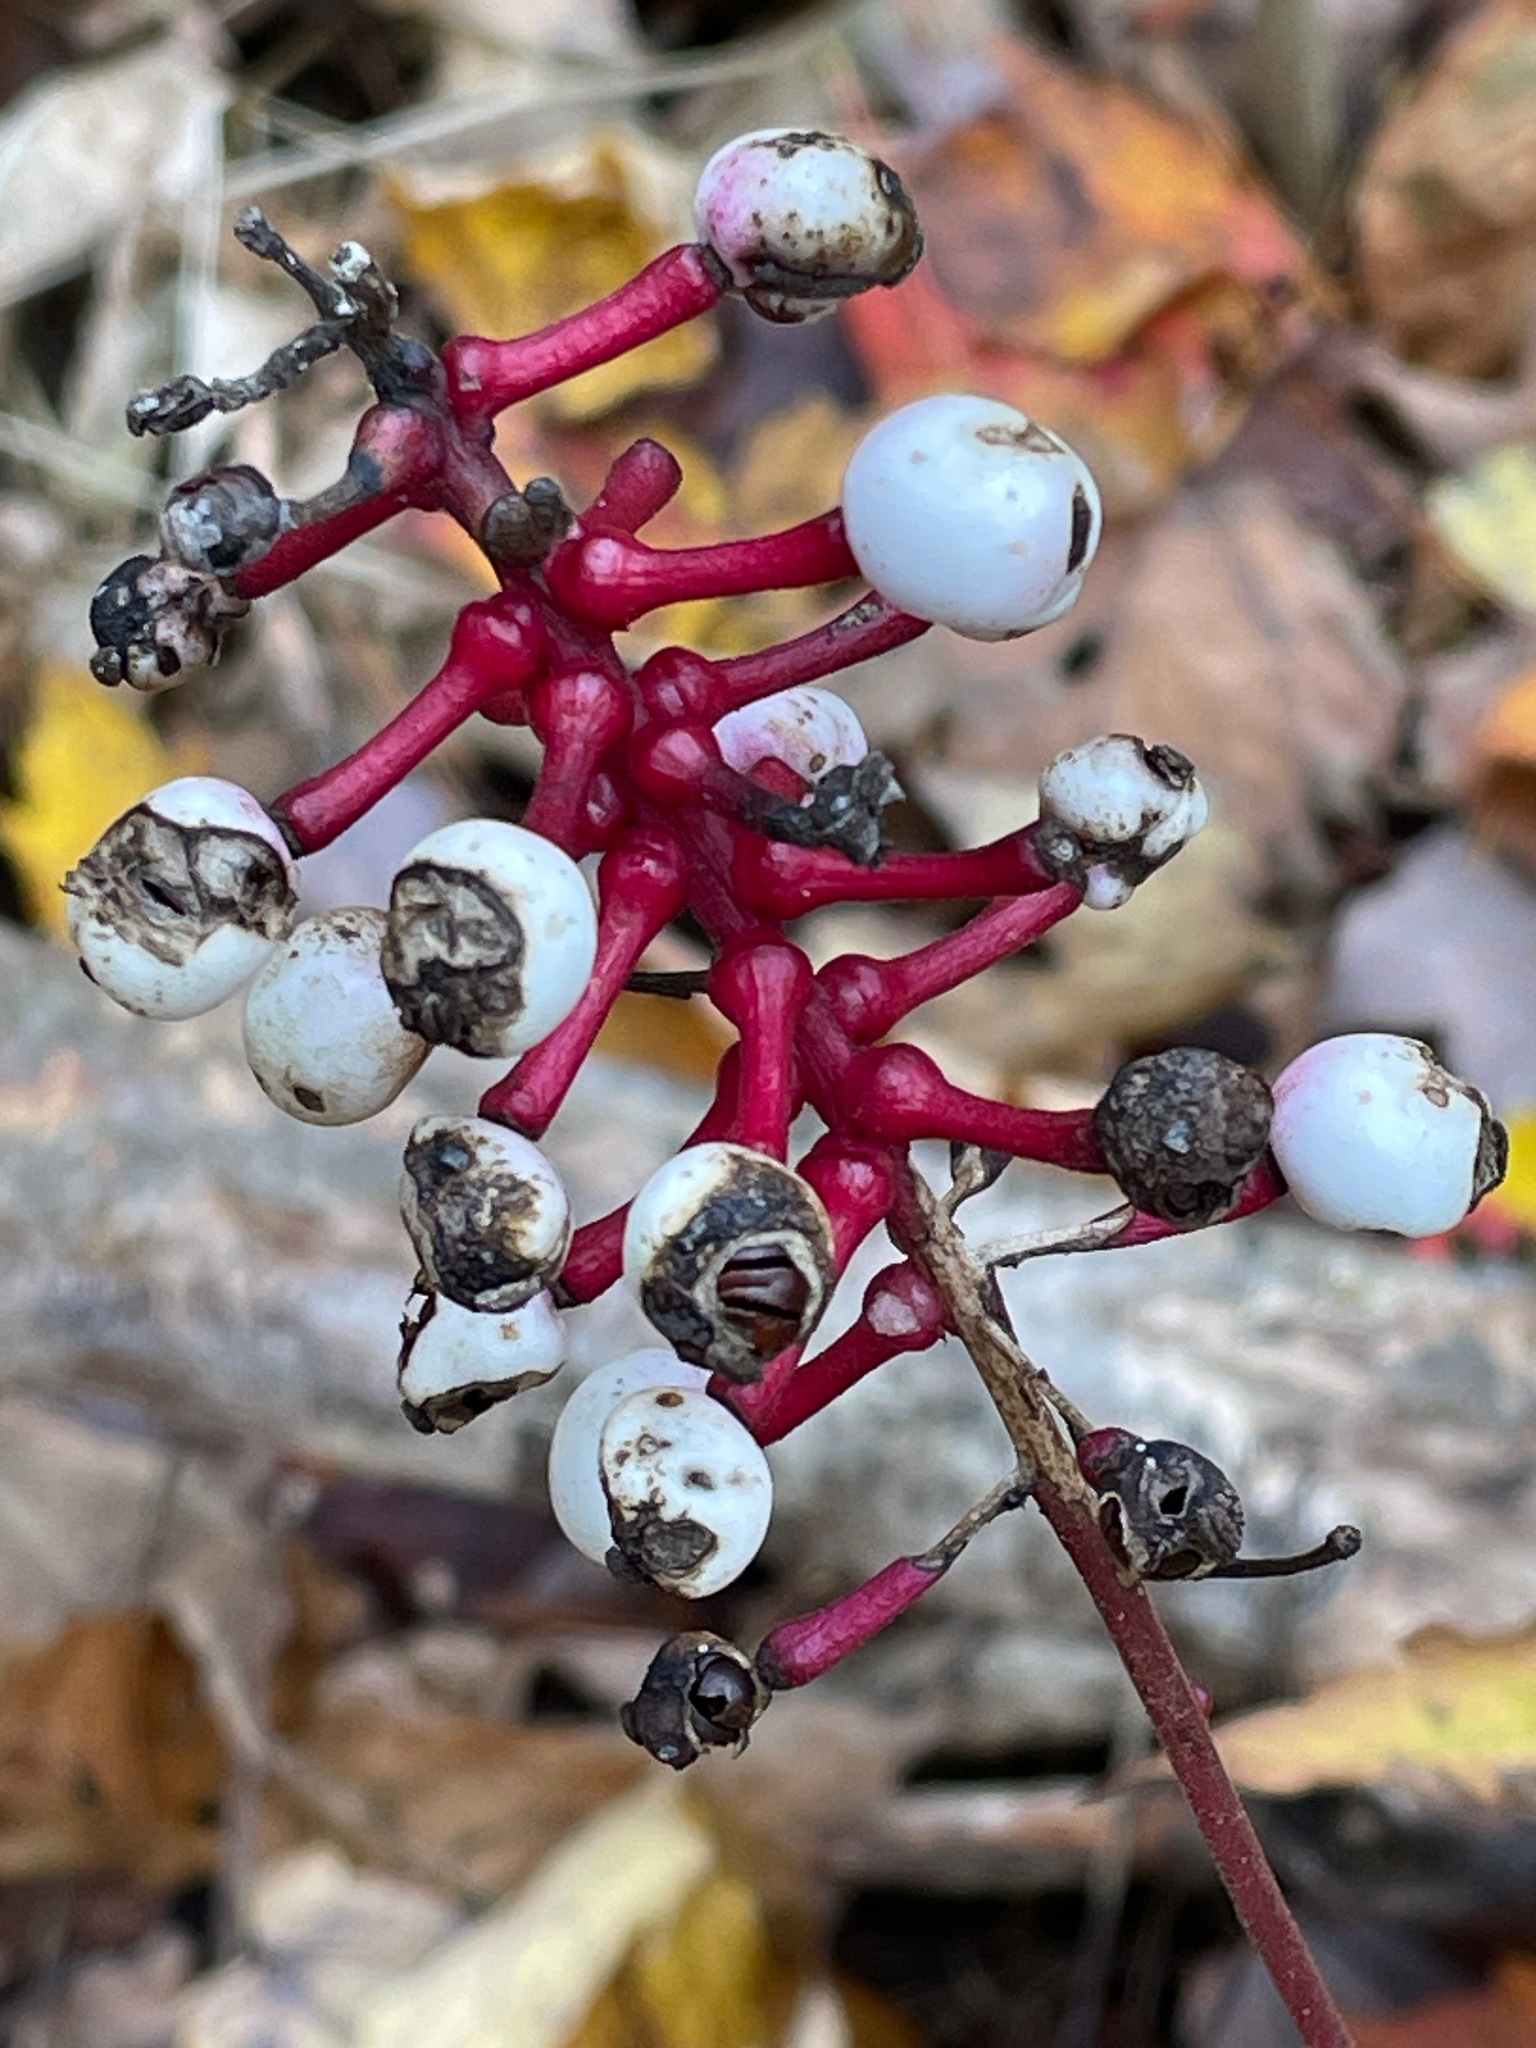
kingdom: Plantae
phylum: Tracheophyta
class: Magnoliopsida
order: Ranunculales
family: Ranunculaceae
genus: Actaea
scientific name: Actaea pachypoda
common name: Doll's-eyes
